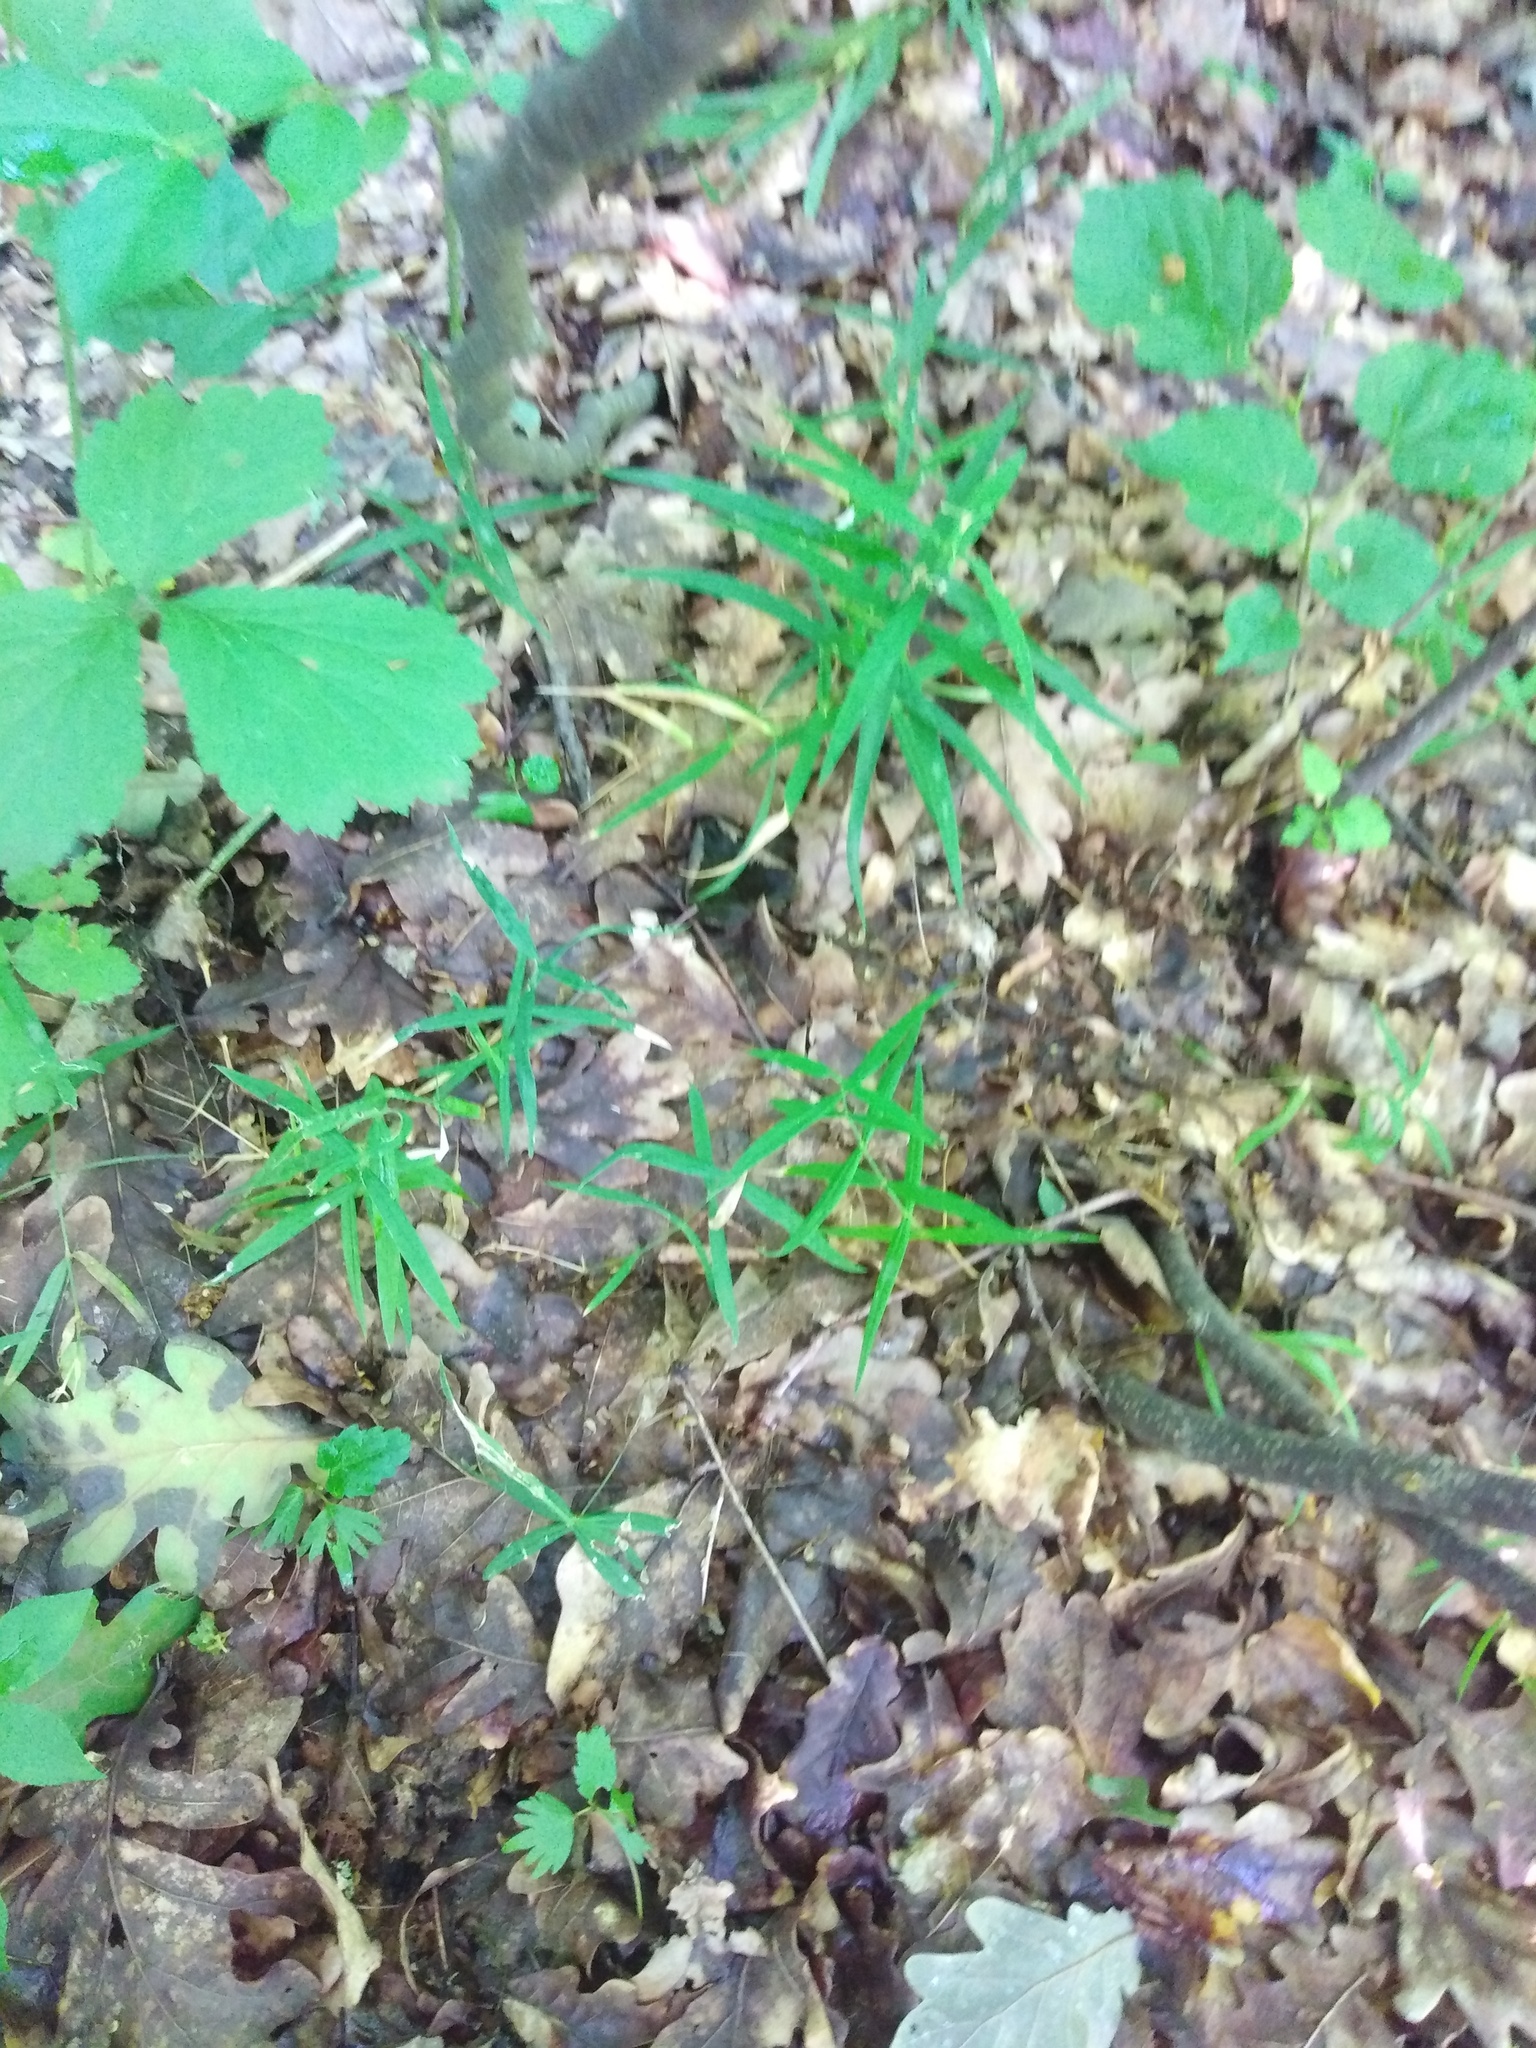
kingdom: Plantae
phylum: Tracheophyta
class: Magnoliopsida
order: Caryophyllales
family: Caryophyllaceae
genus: Rabelera
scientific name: Rabelera holostea
